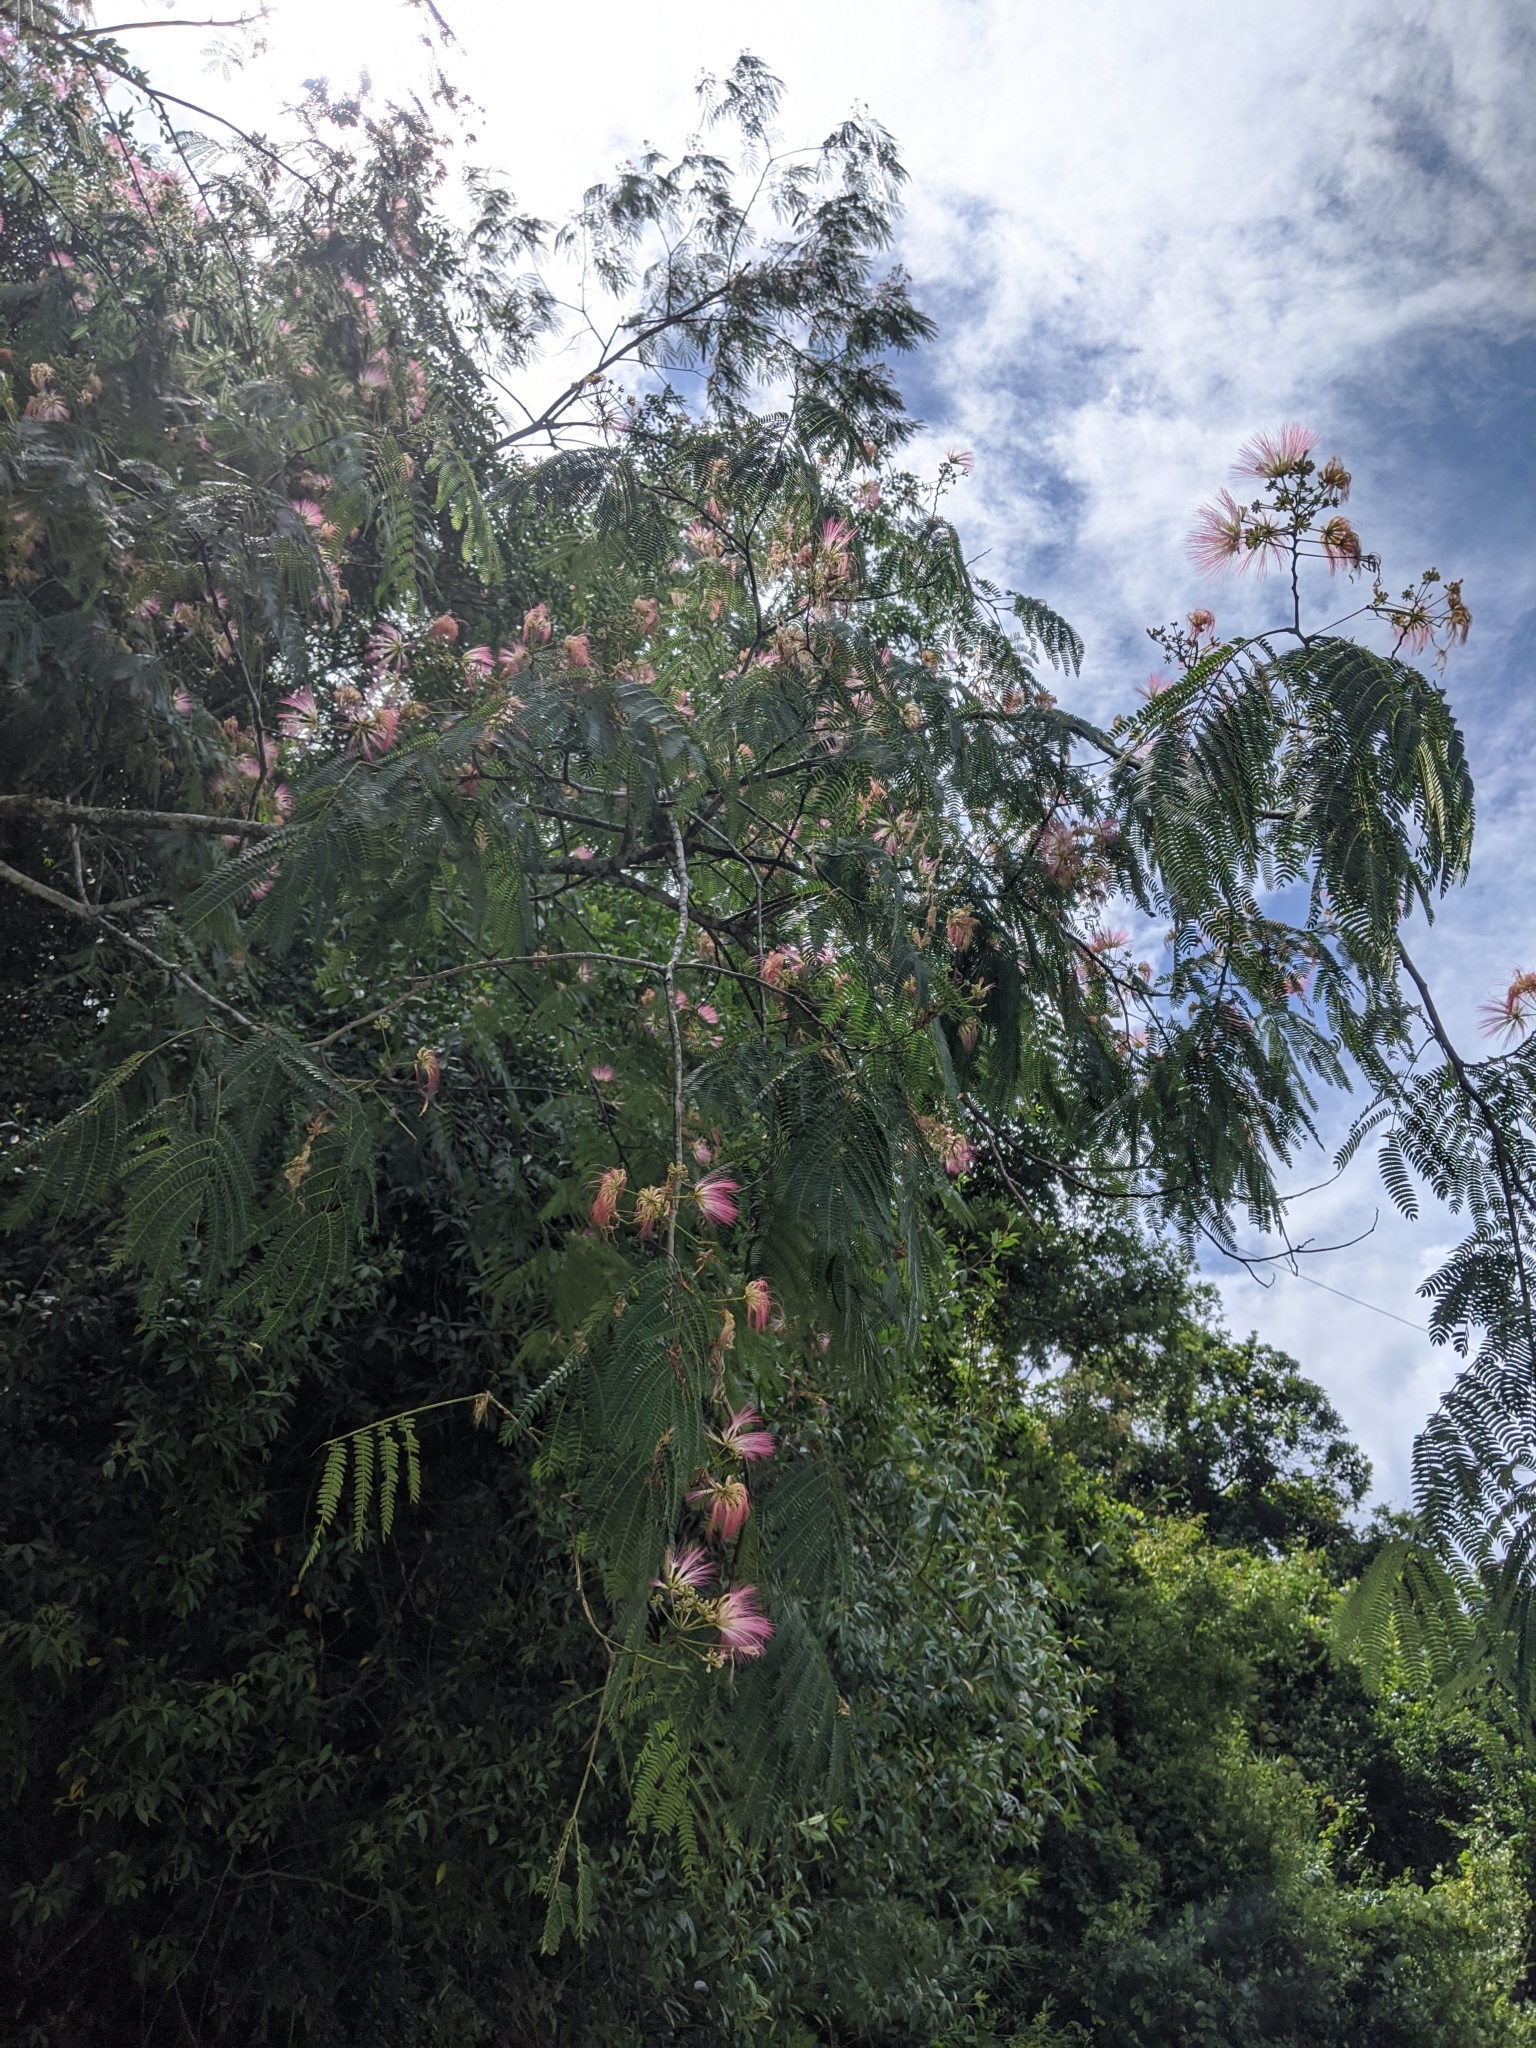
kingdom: Plantae
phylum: Tracheophyta
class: Magnoliopsida
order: Fabales
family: Fabaceae
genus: Albizia
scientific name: Albizia julibrissin
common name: Silktree
